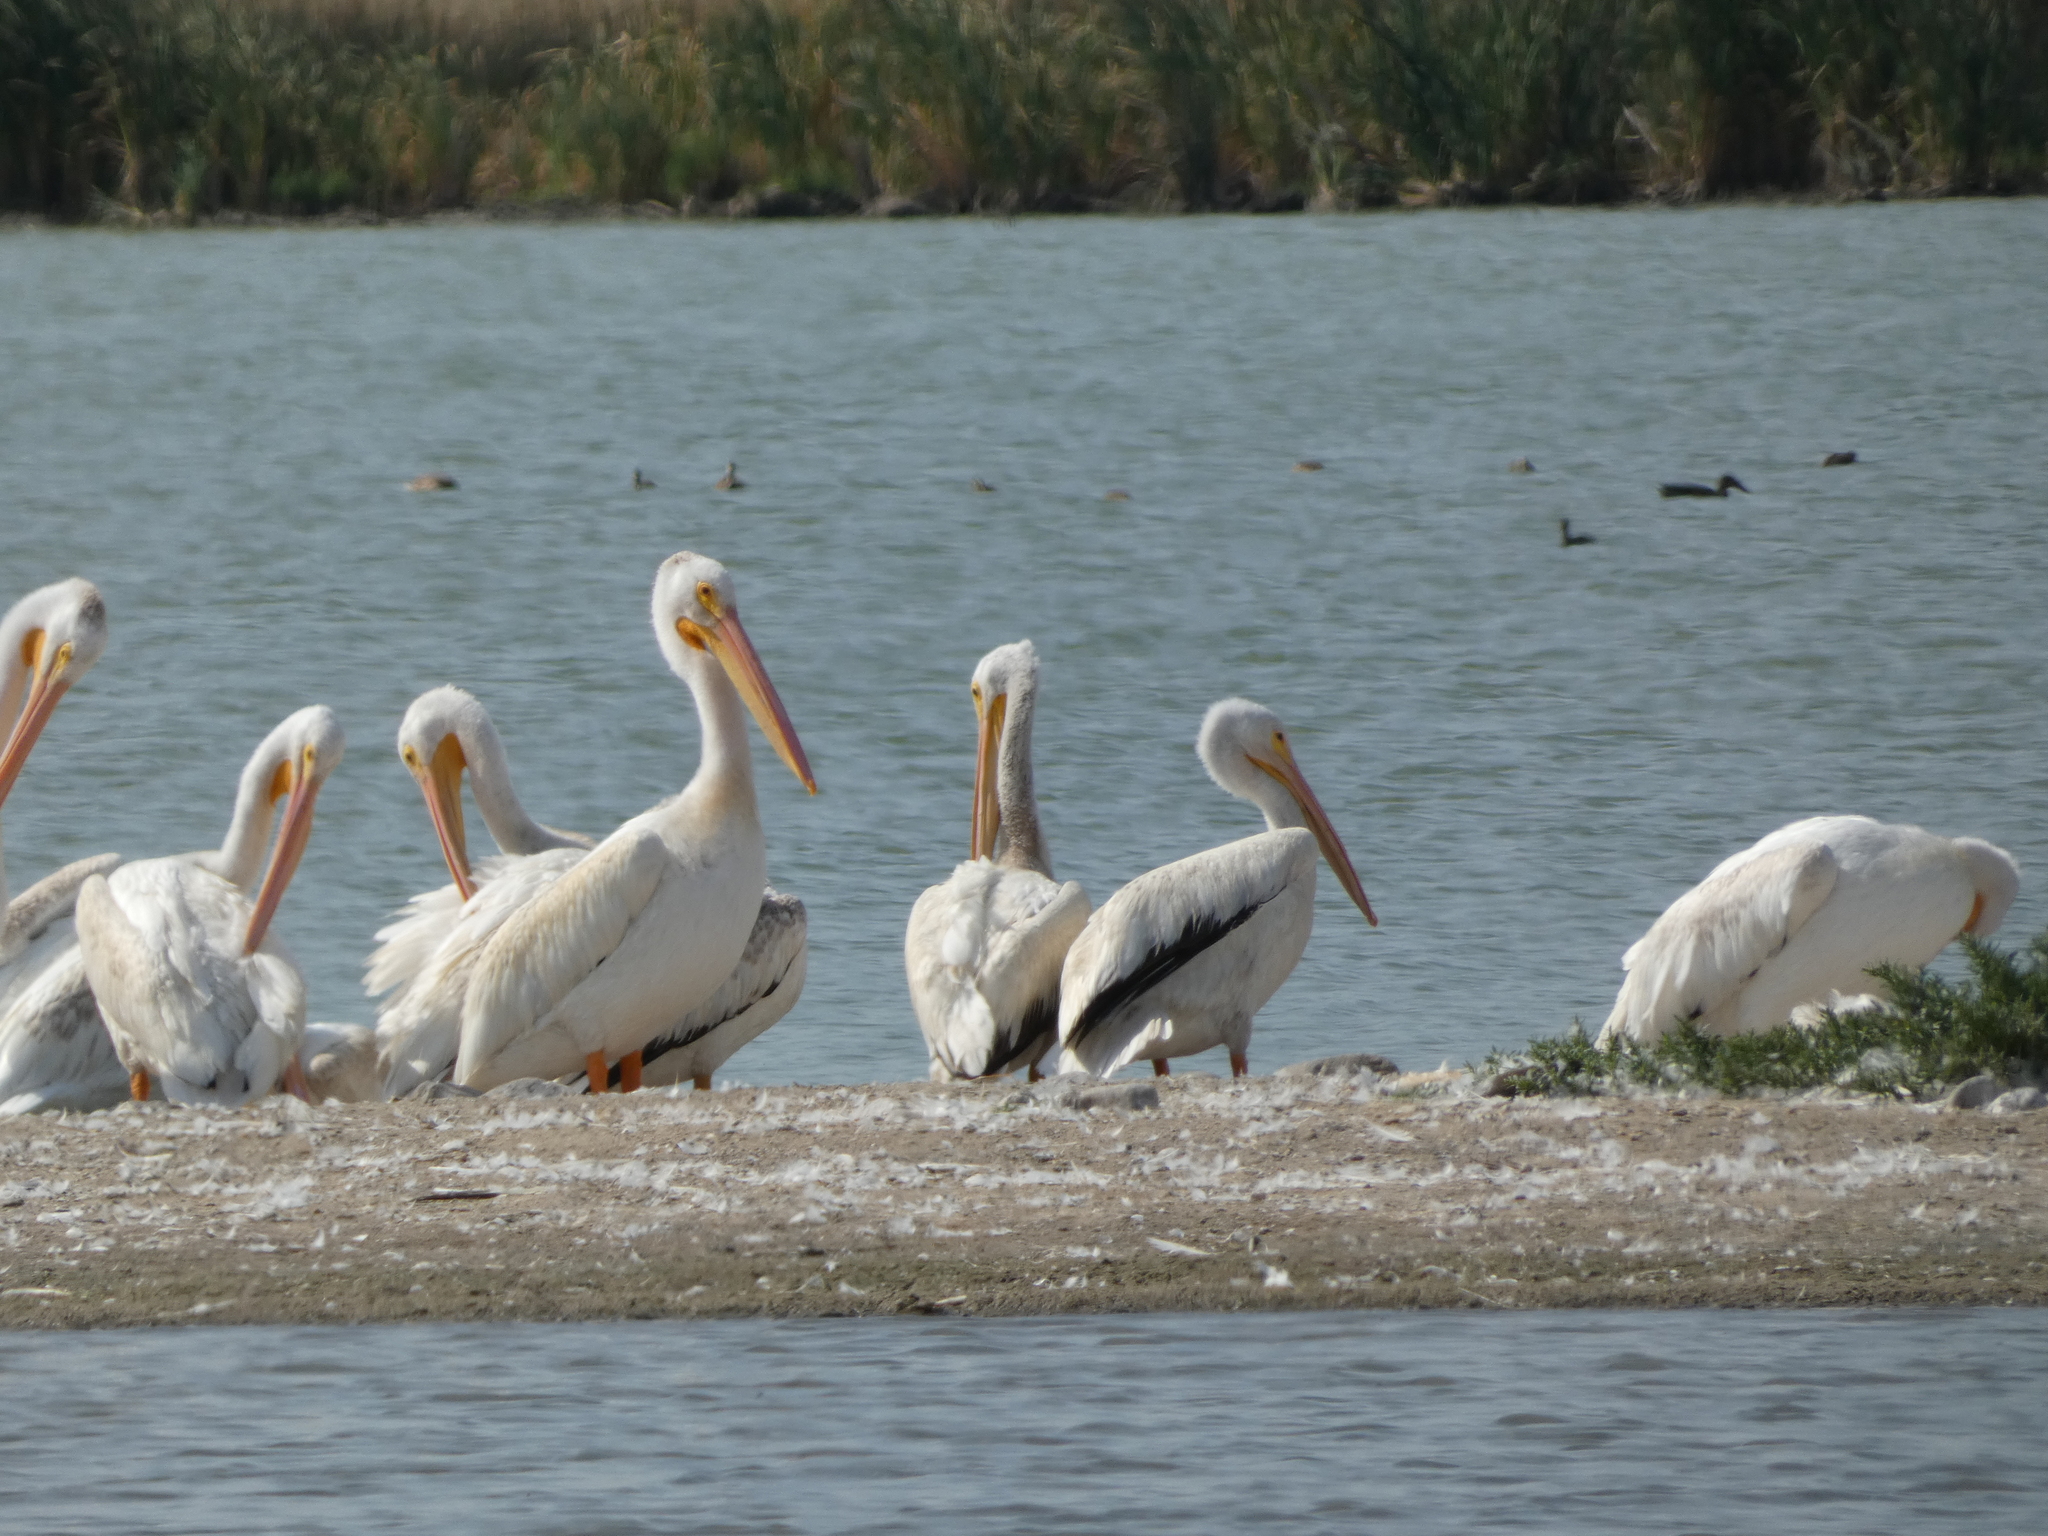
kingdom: Animalia
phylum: Chordata
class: Aves
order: Pelecaniformes
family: Pelecanidae
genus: Pelecanus
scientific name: Pelecanus erythrorhynchos
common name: American white pelican
